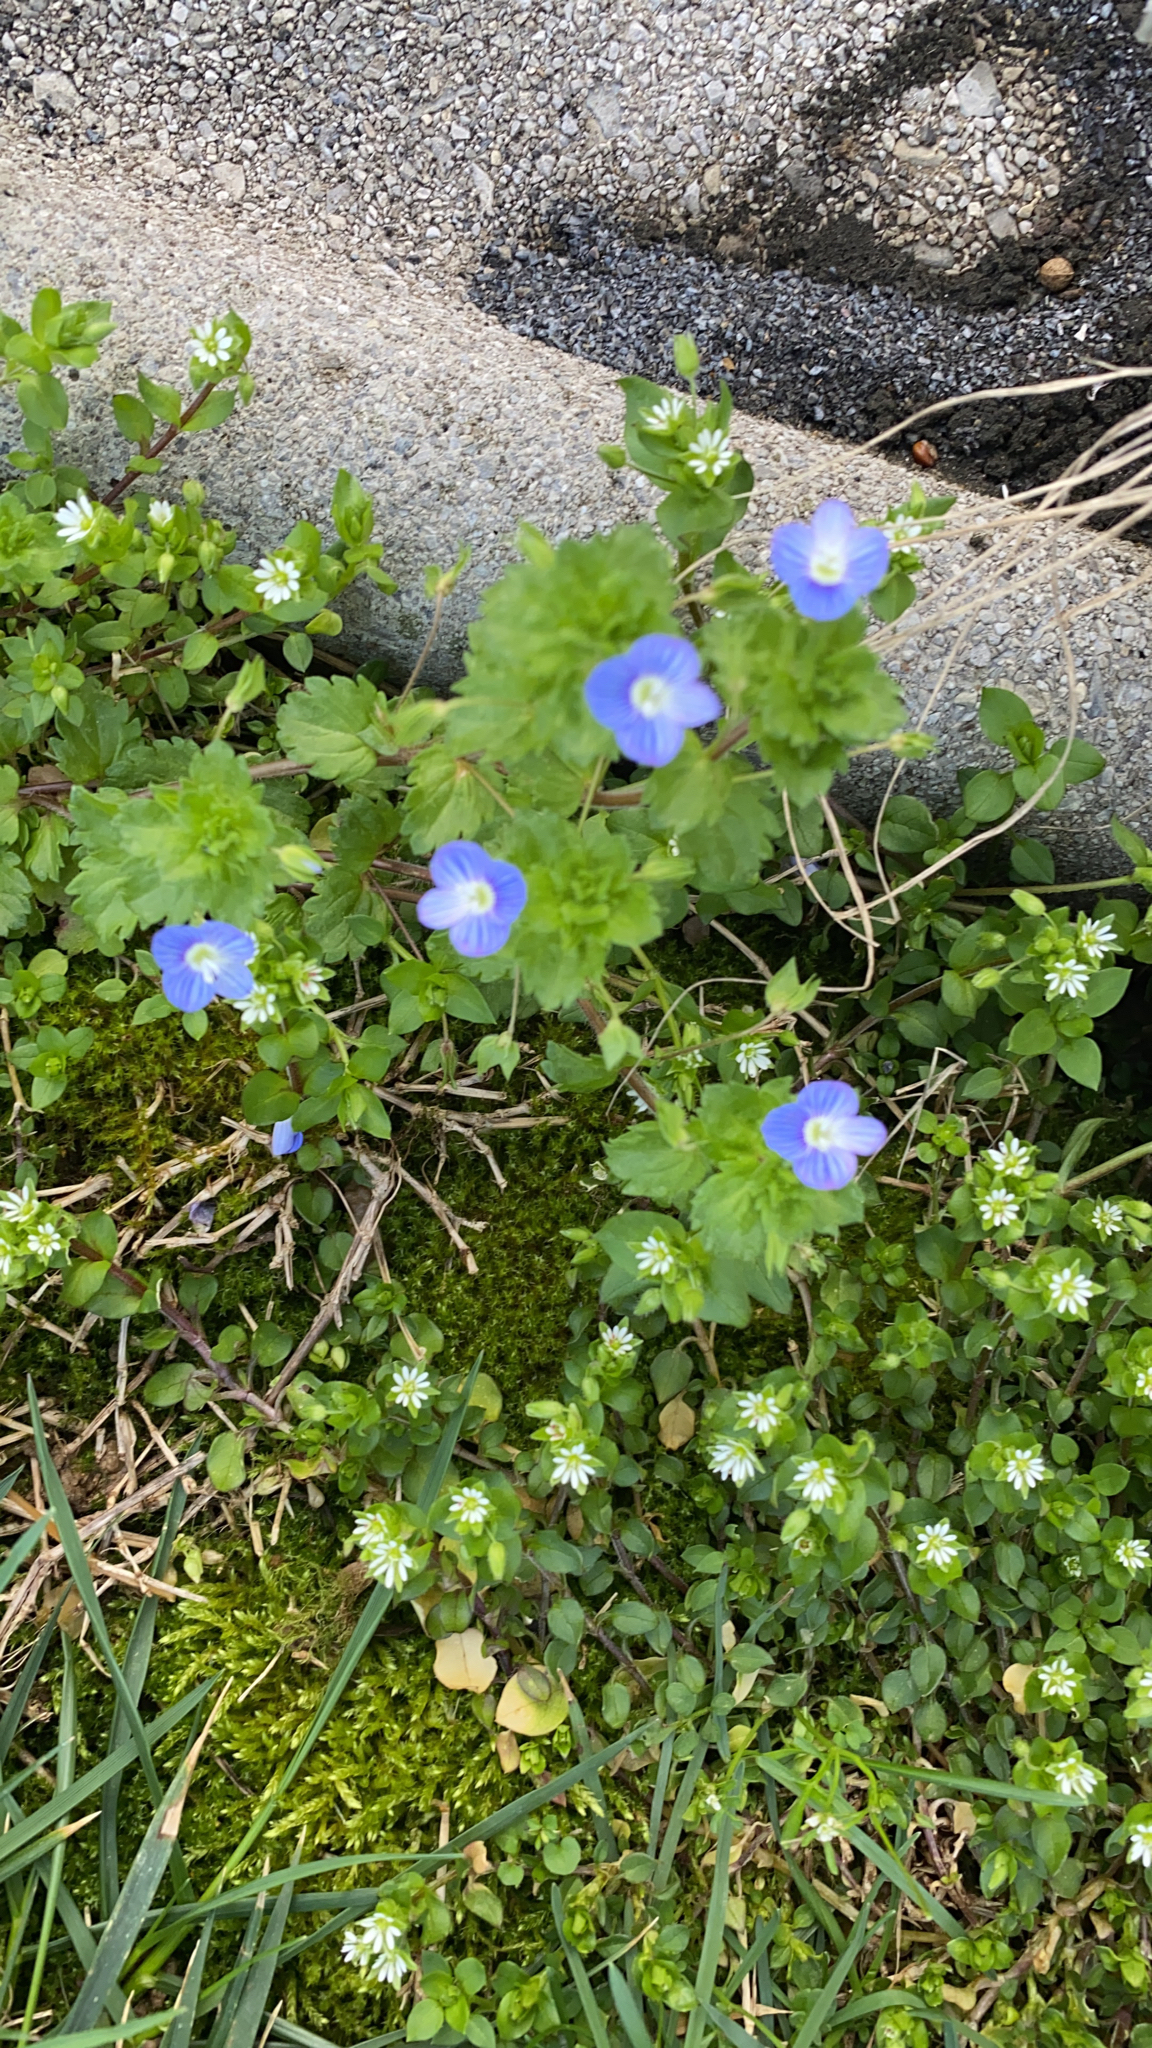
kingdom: Plantae
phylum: Tracheophyta
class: Magnoliopsida
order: Lamiales
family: Plantaginaceae
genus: Veronica
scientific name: Veronica persica
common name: Common field-speedwell
